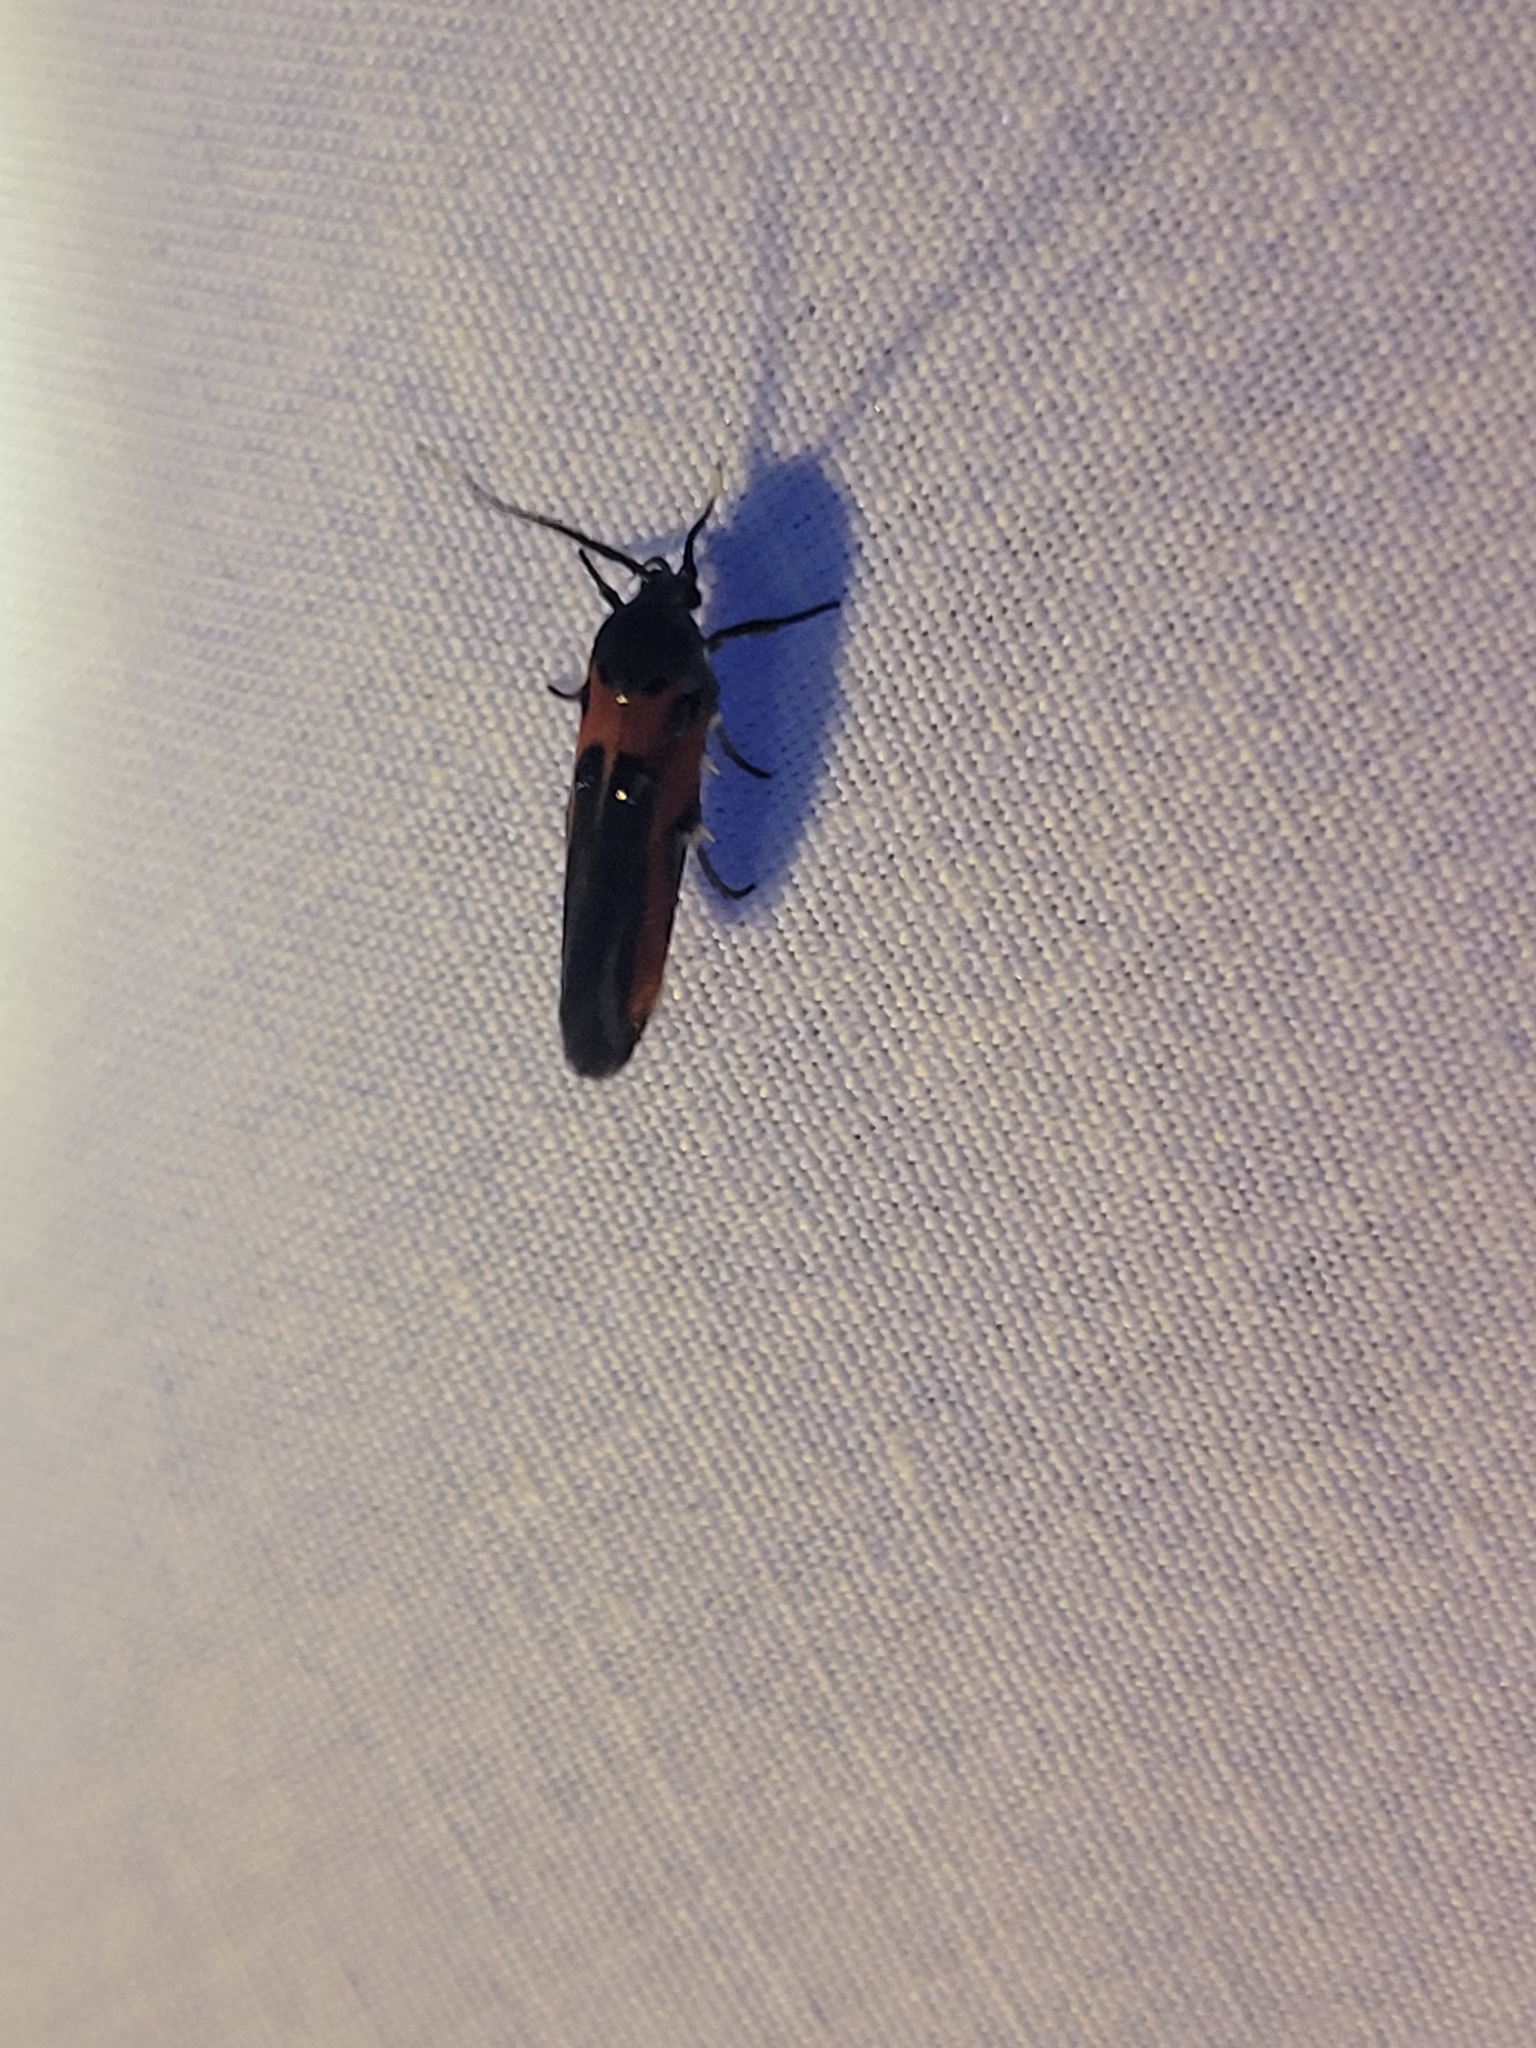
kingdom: Animalia
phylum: Arthropoda
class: Insecta
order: Lepidoptera
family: Cosmopterigidae
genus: Euclemensia
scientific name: Euclemensia bassettella
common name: Kermes scale moth
